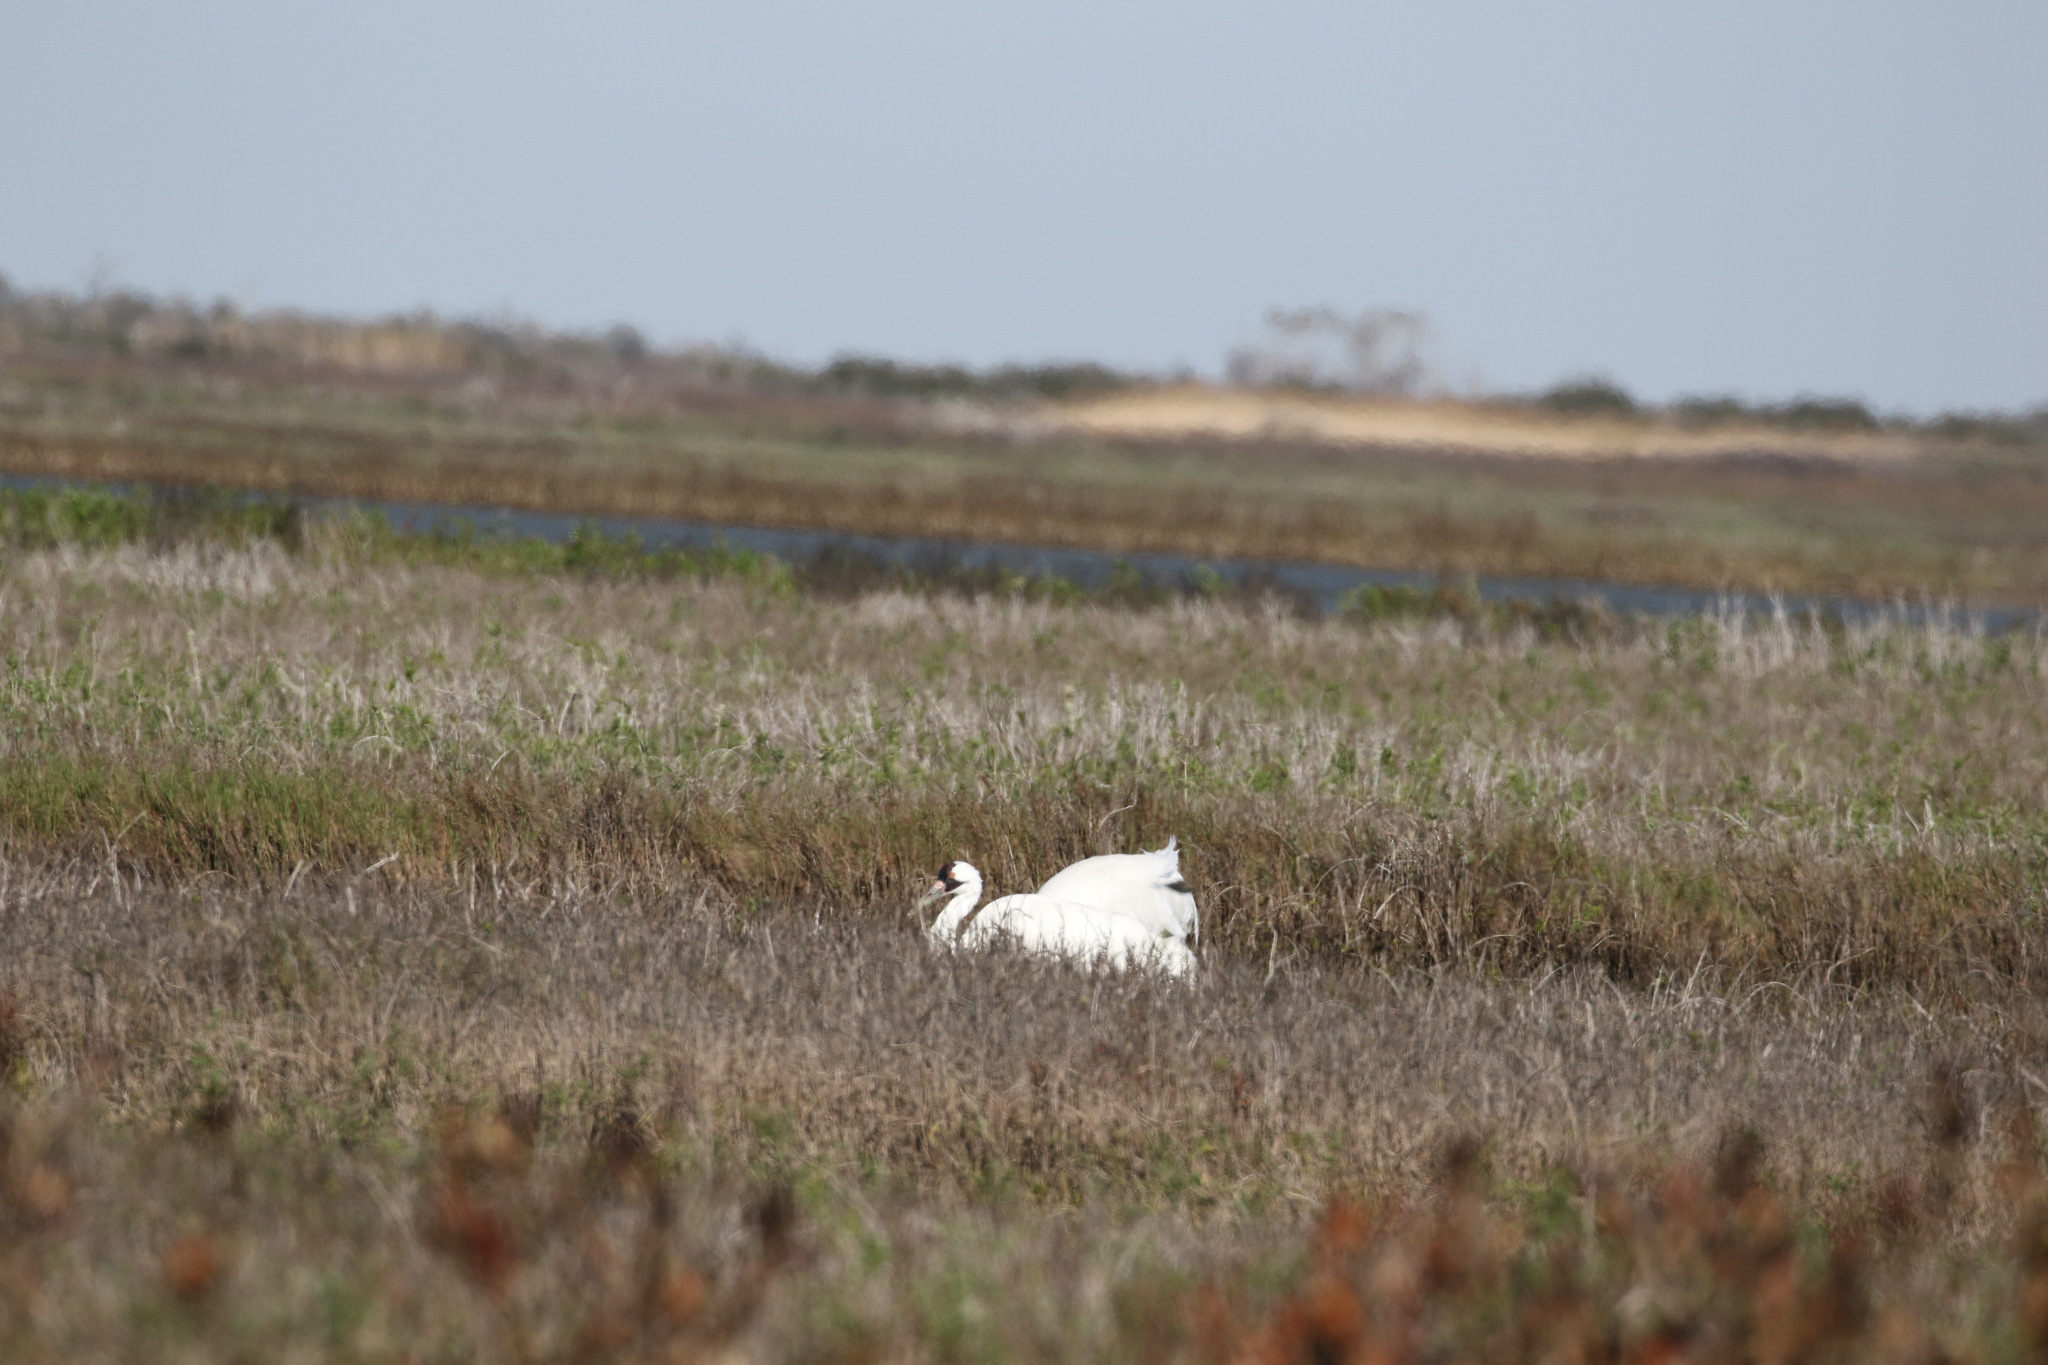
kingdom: Animalia
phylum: Chordata
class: Aves
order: Gruiformes
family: Gruidae
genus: Grus
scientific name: Grus americana
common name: Whooping crane
